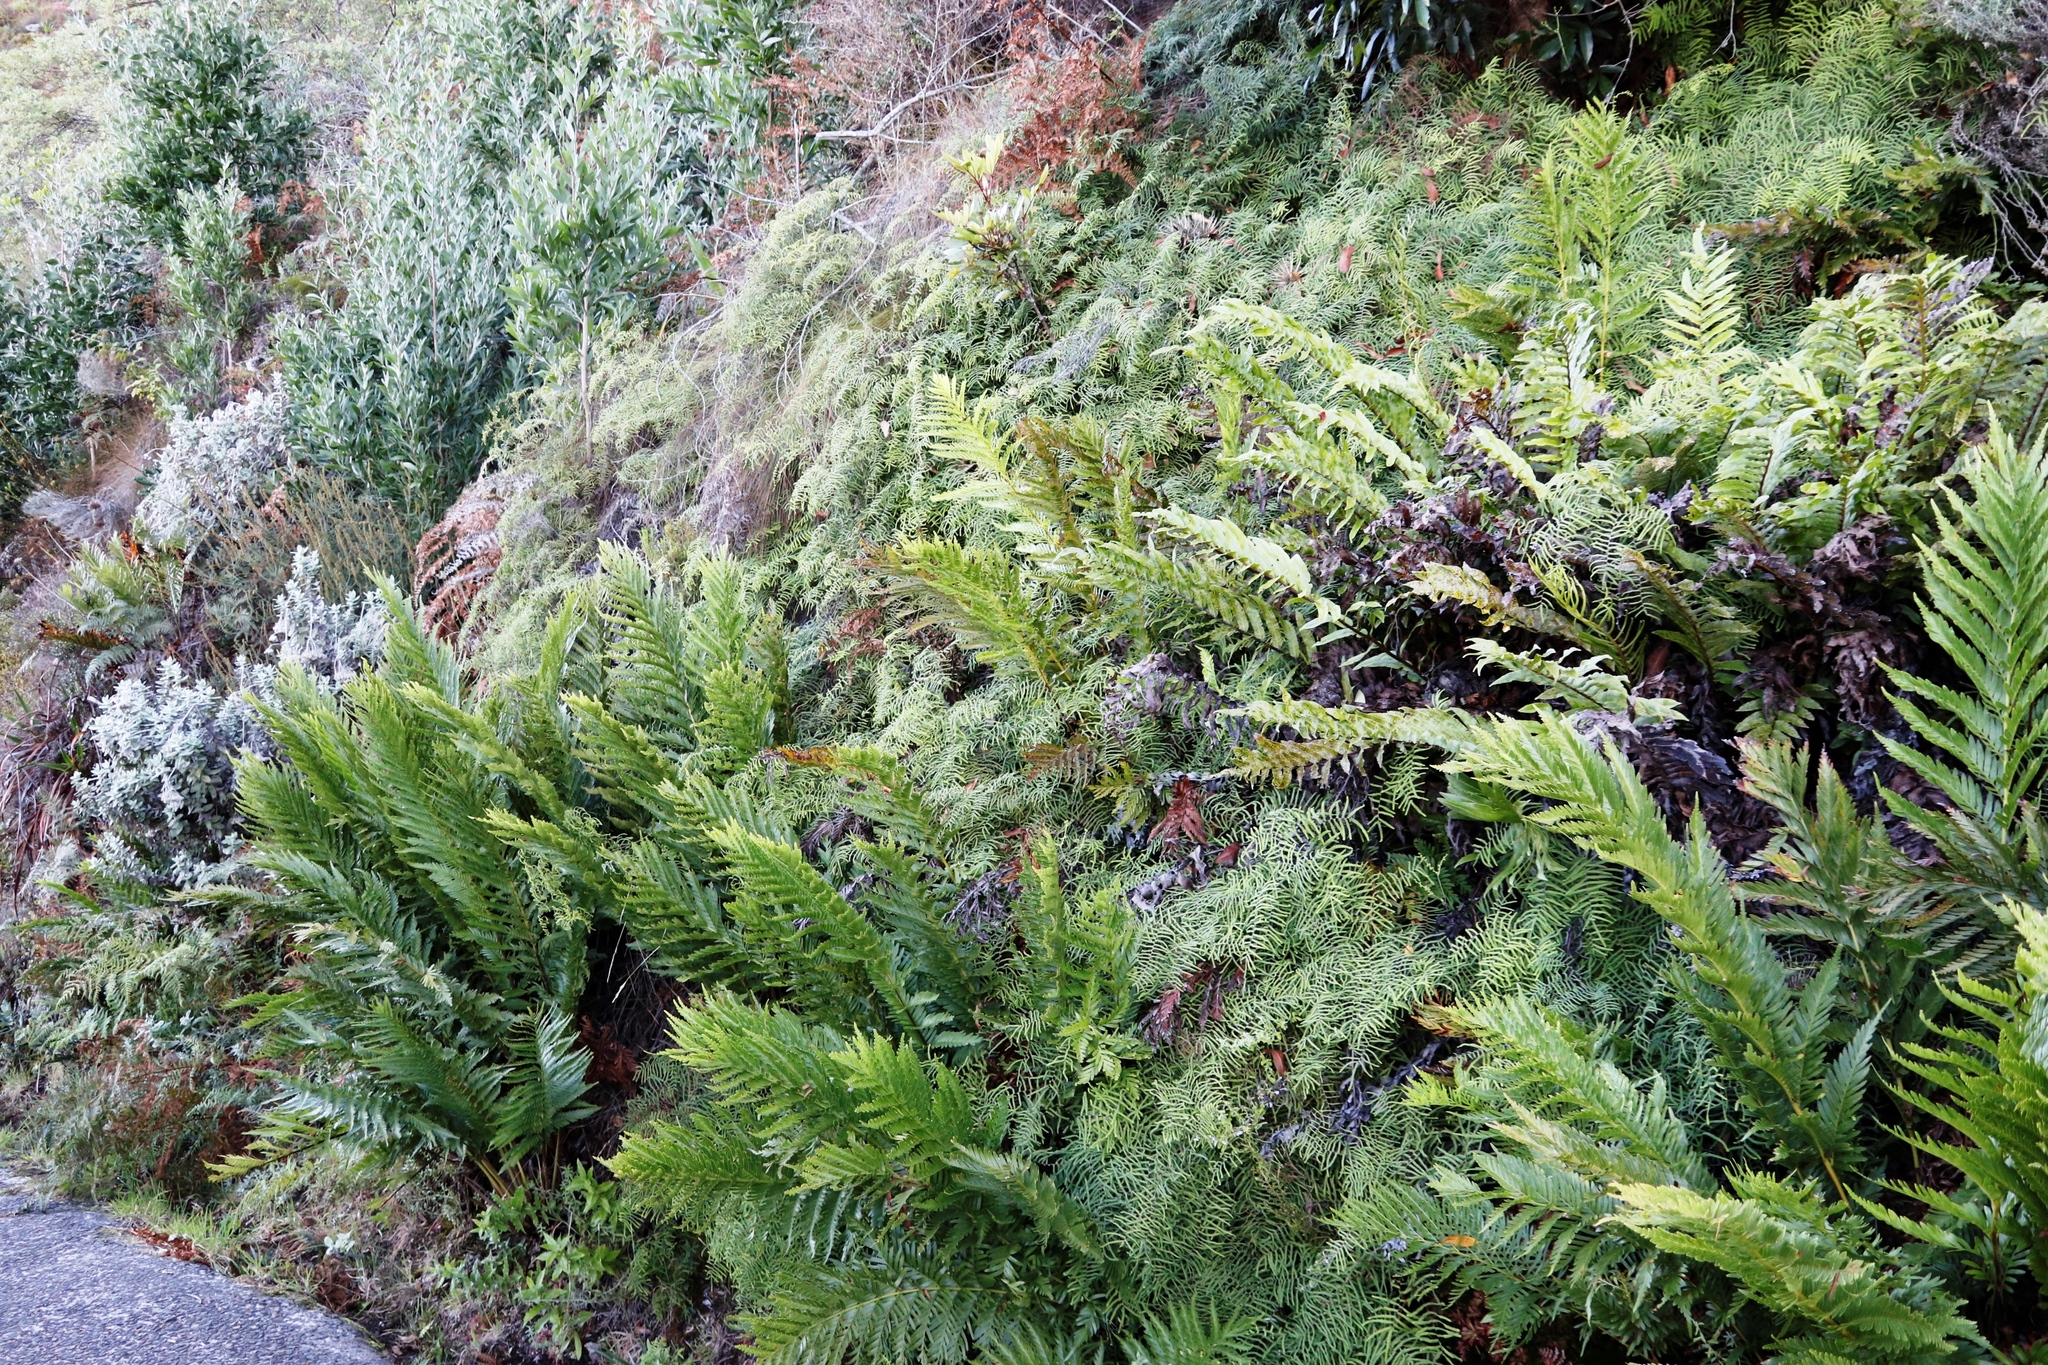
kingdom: Plantae
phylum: Tracheophyta
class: Polypodiopsida
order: Osmundales
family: Osmundaceae
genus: Todea
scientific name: Todea barbara
